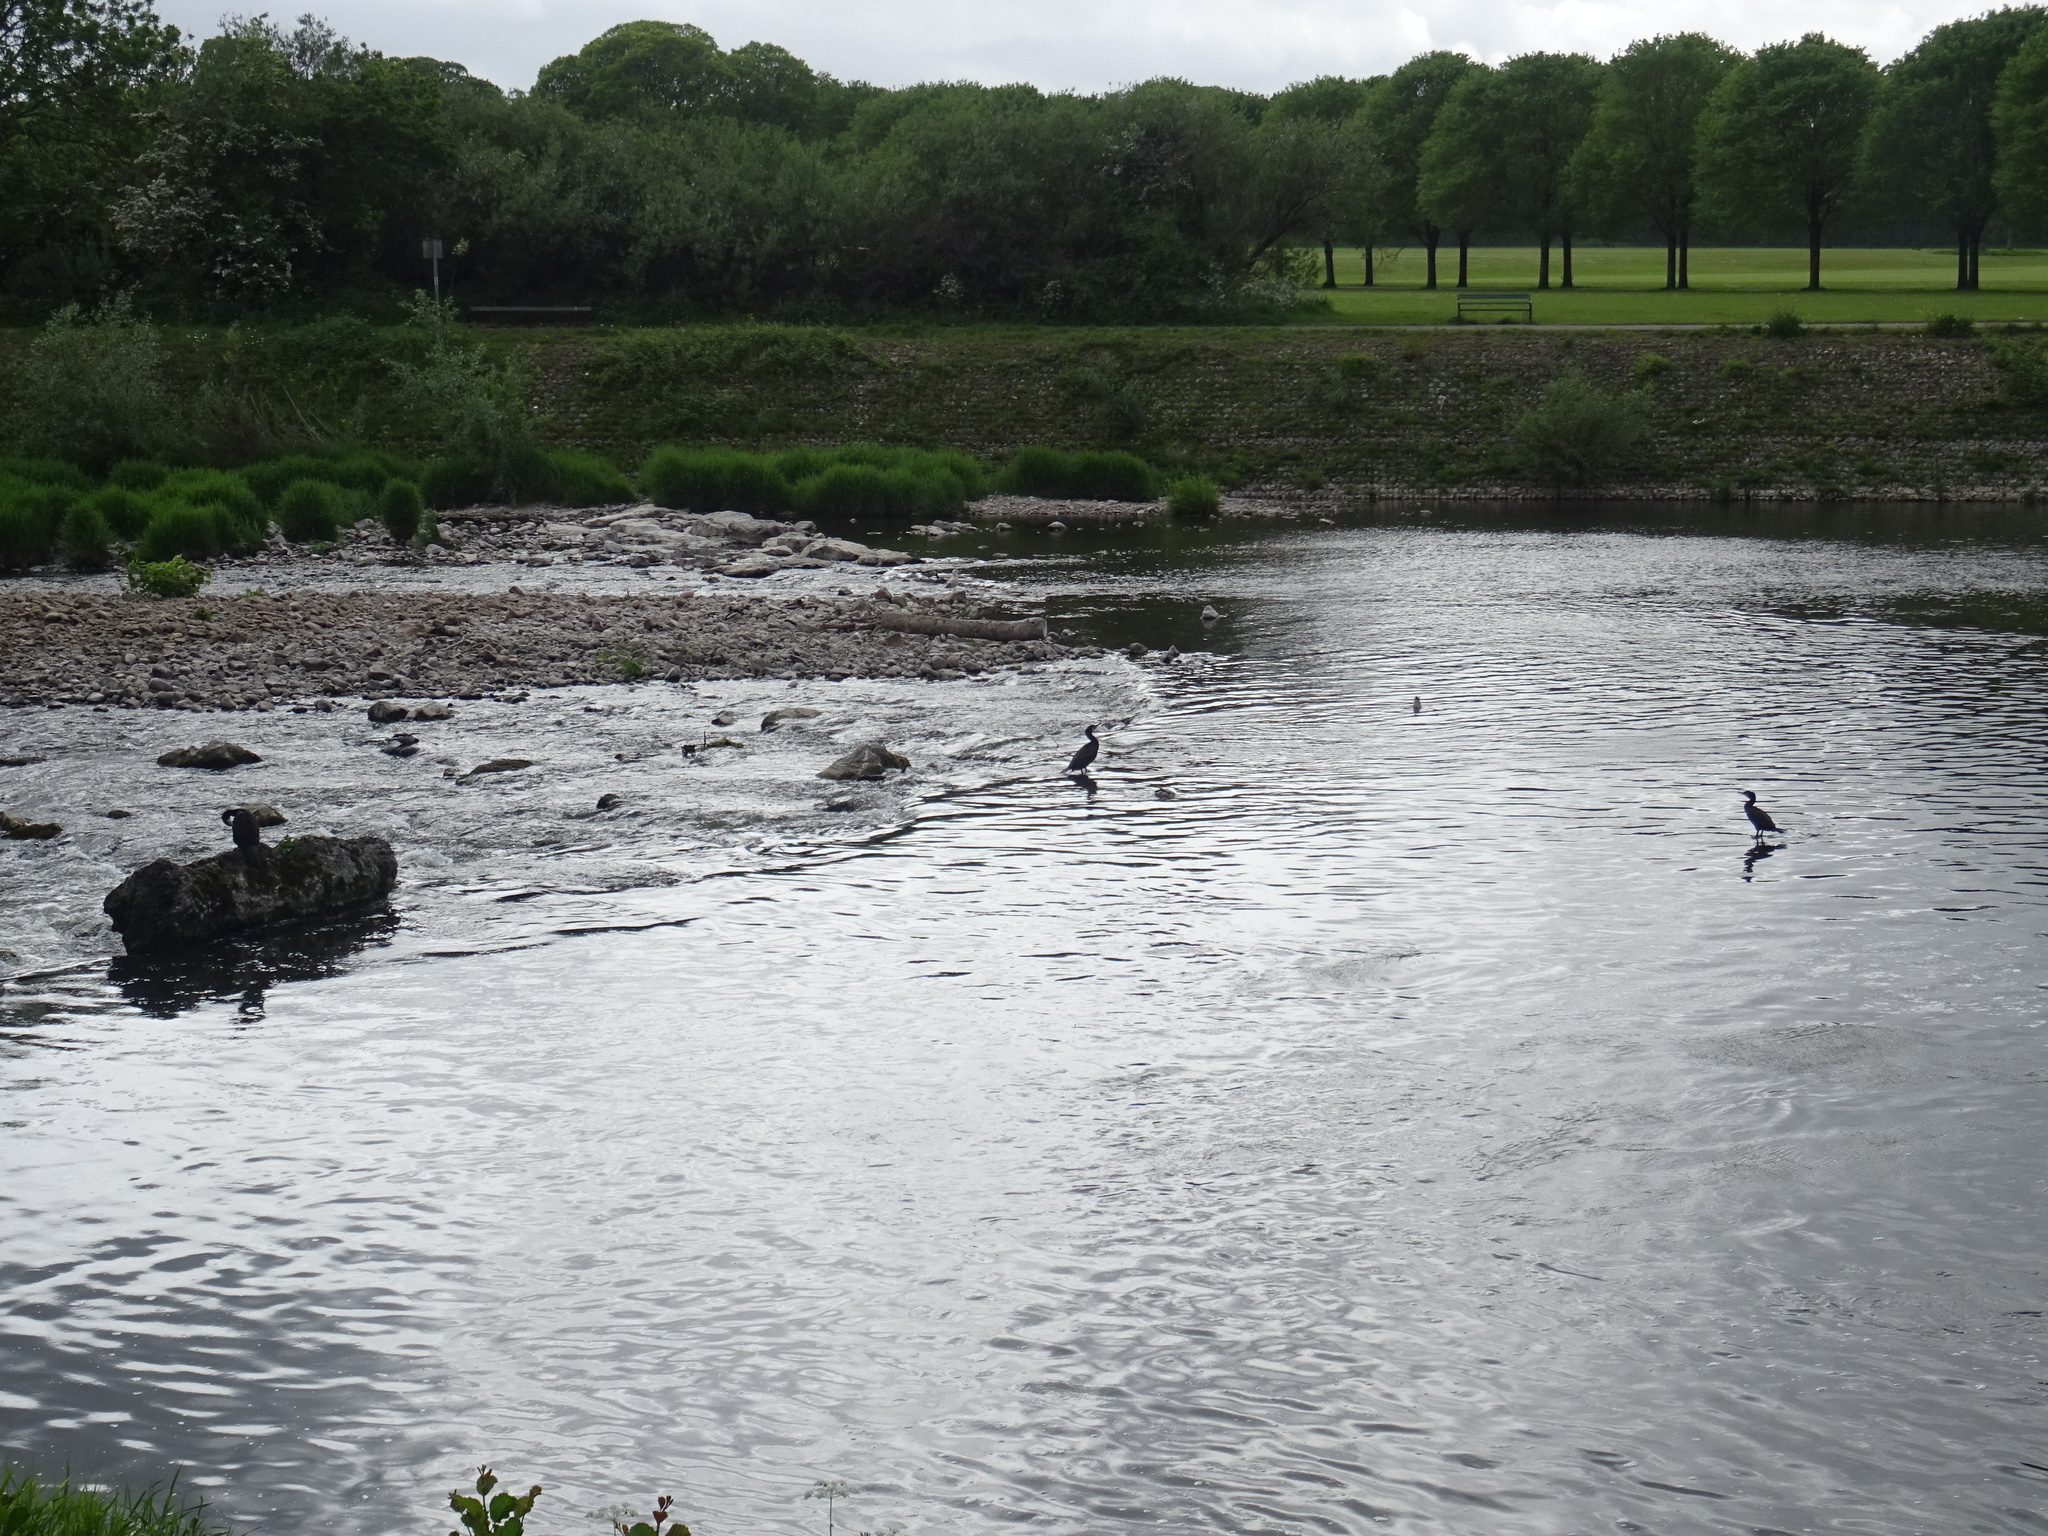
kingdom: Animalia
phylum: Chordata
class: Aves
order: Suliformes
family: Phalacrocoracidae
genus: Phalacrocorax
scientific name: Phalacrocorax carbo
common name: Great cormorant
